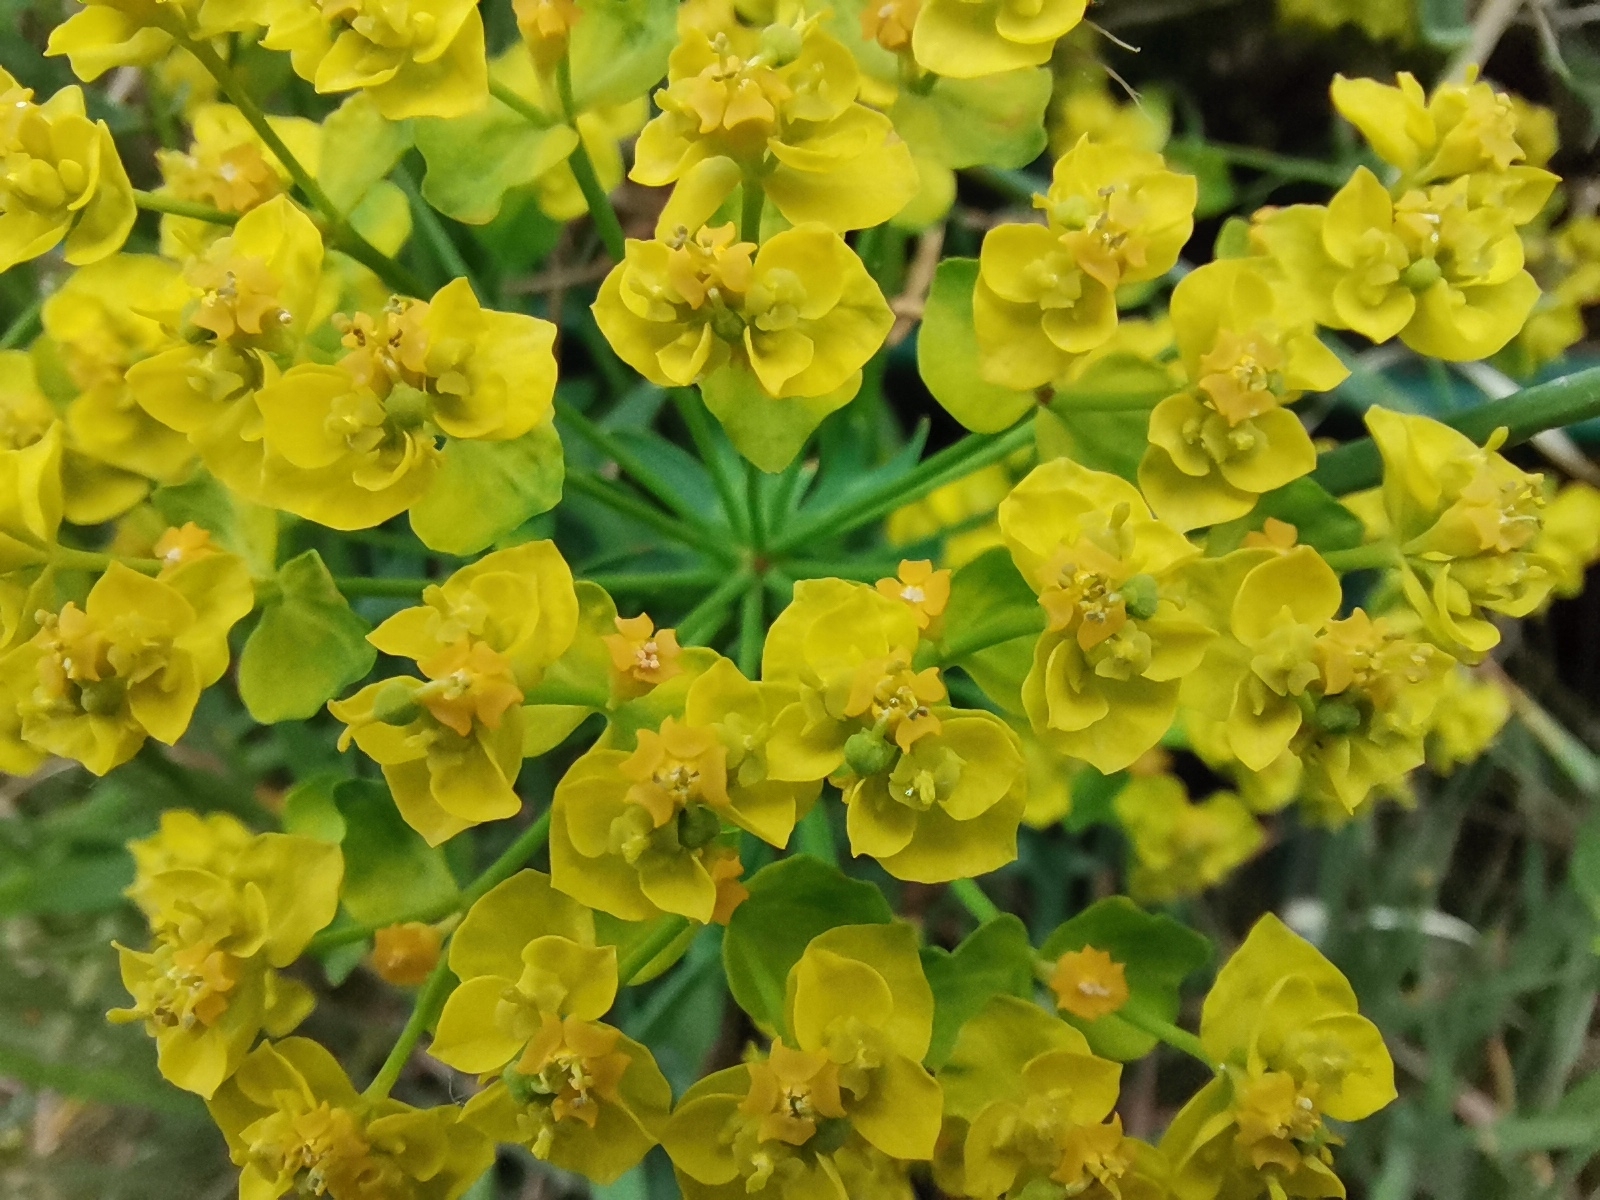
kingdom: Plantae
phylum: Tracheophyta
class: Magnoliopsida
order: Malpighiales
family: Euphorbiaceae
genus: Euphorbia
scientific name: Euphorbia cyparissias
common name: Cypress spurge
